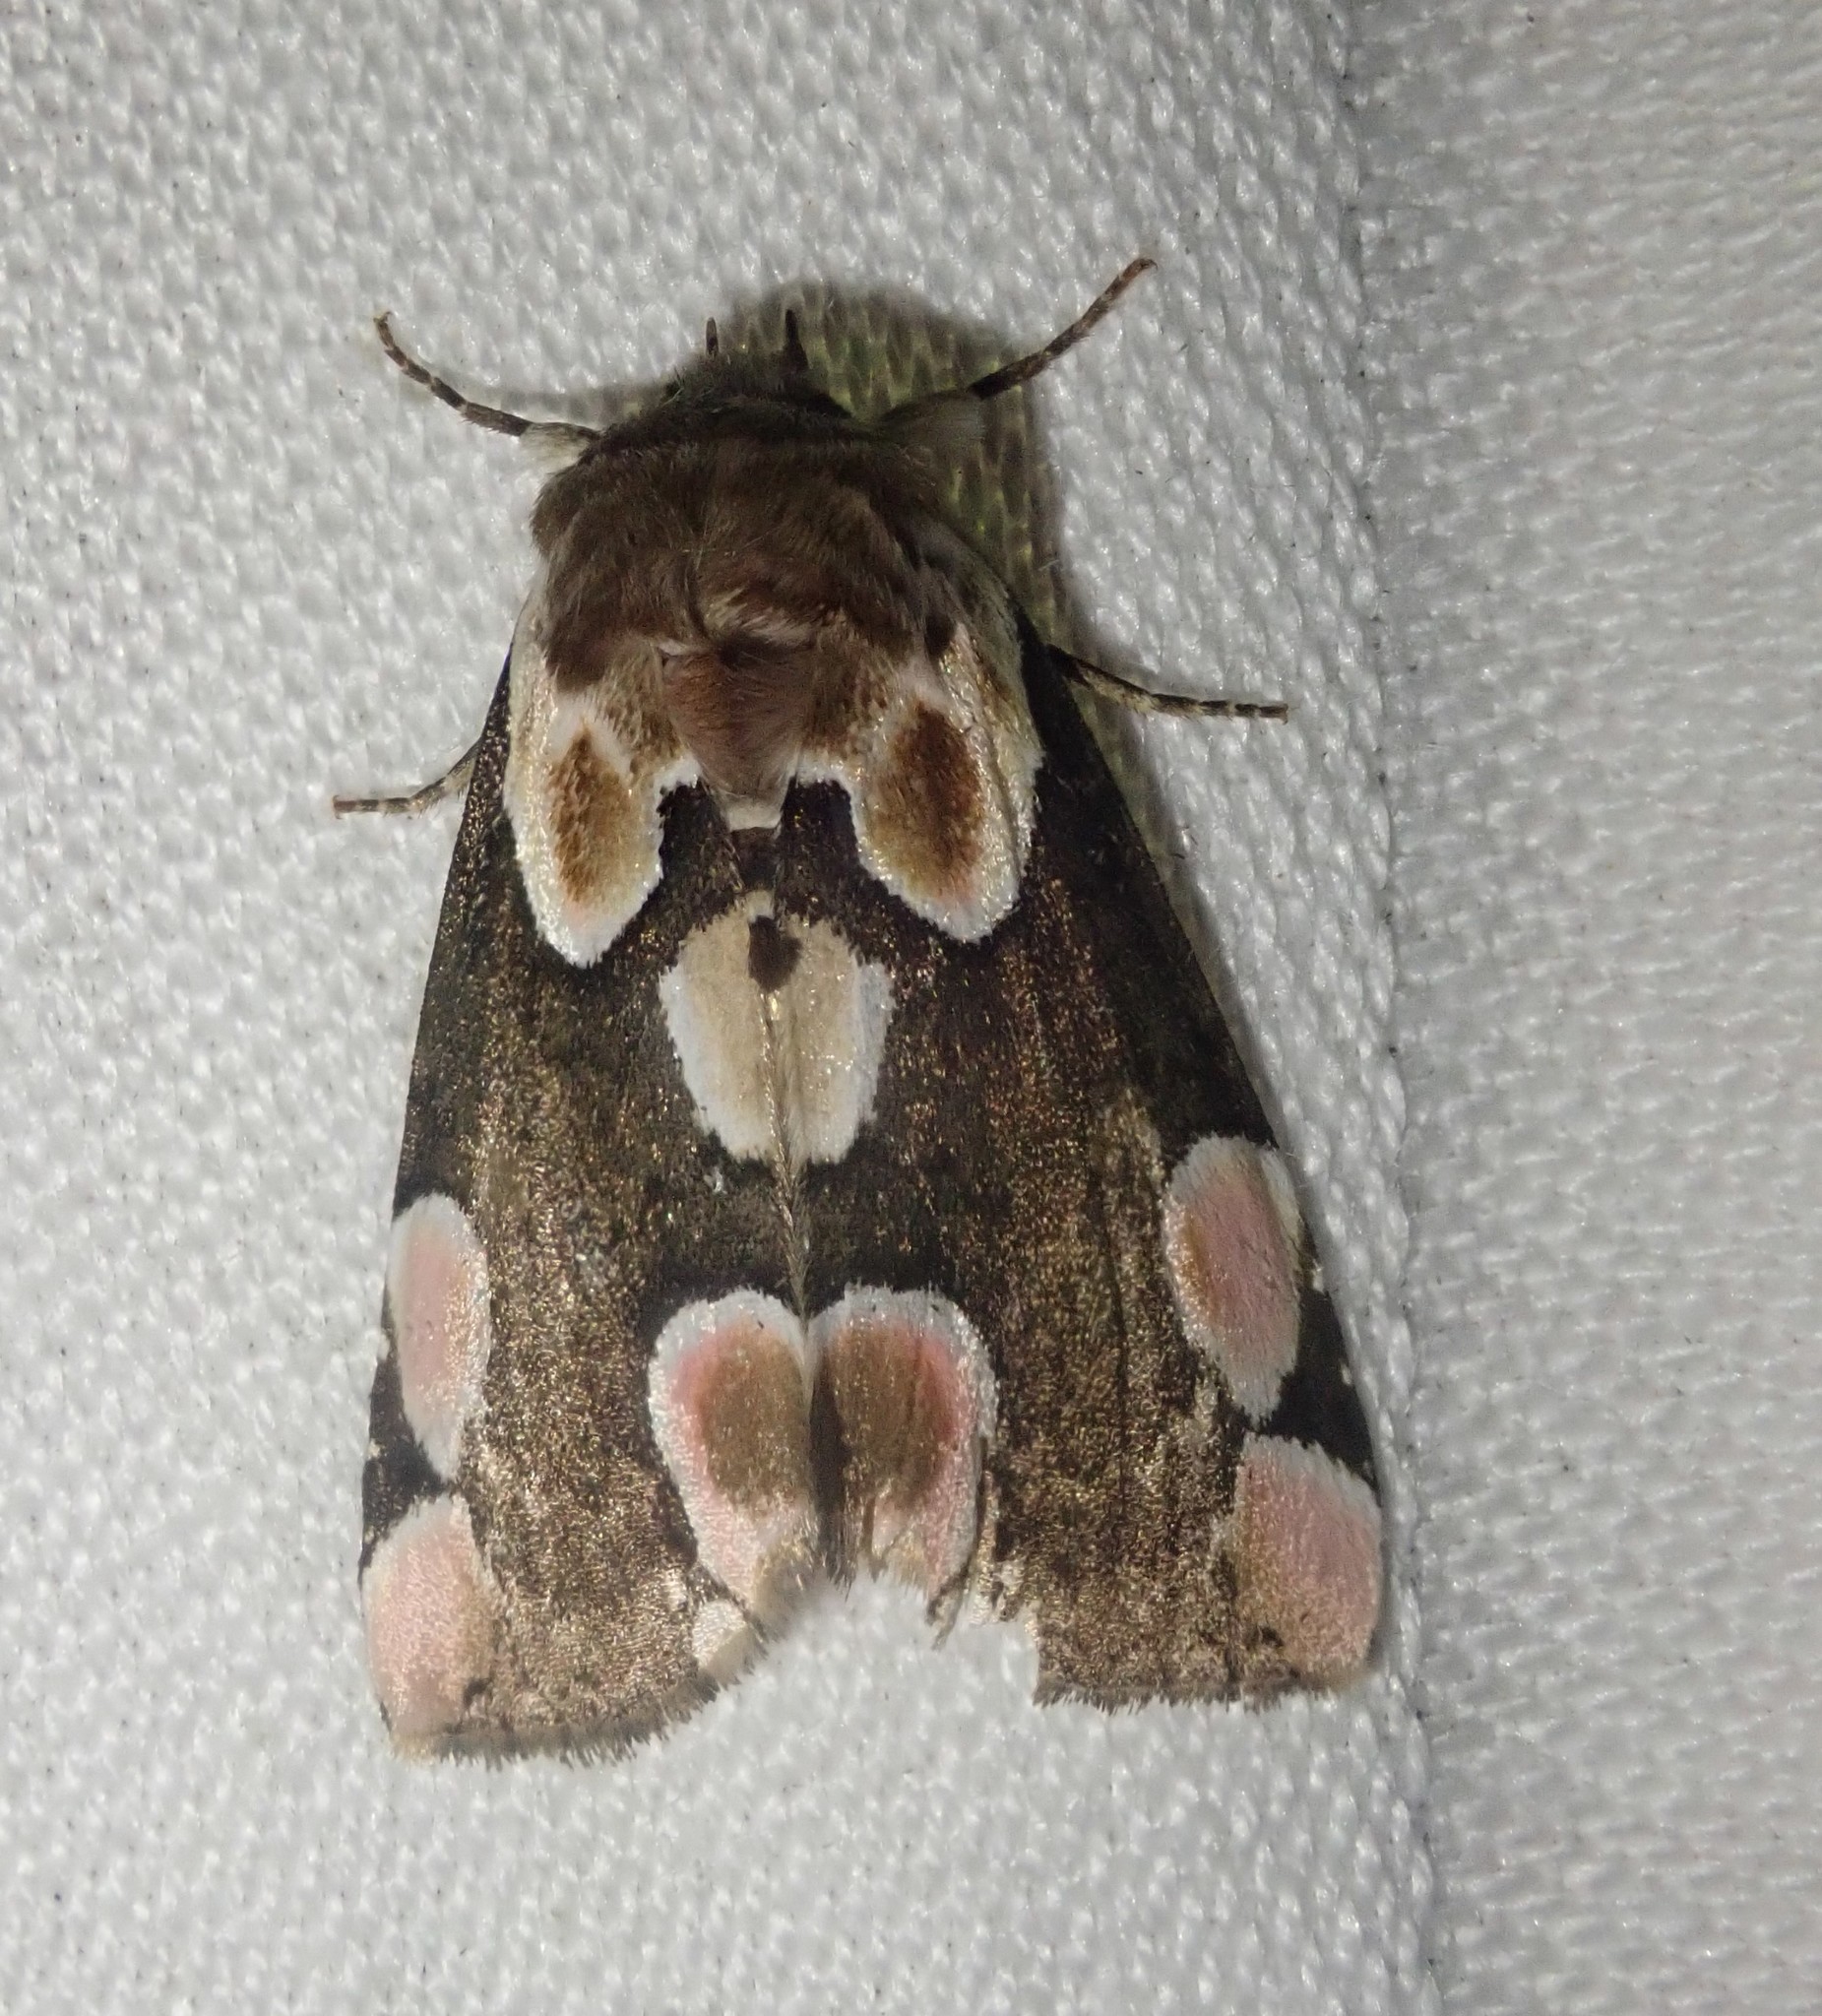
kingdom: Animalia
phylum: Arthropoda
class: Insecta
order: Lepidoptera
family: Drepanidae
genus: Thyatira
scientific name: Thyatira batis
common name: Peach blossom
